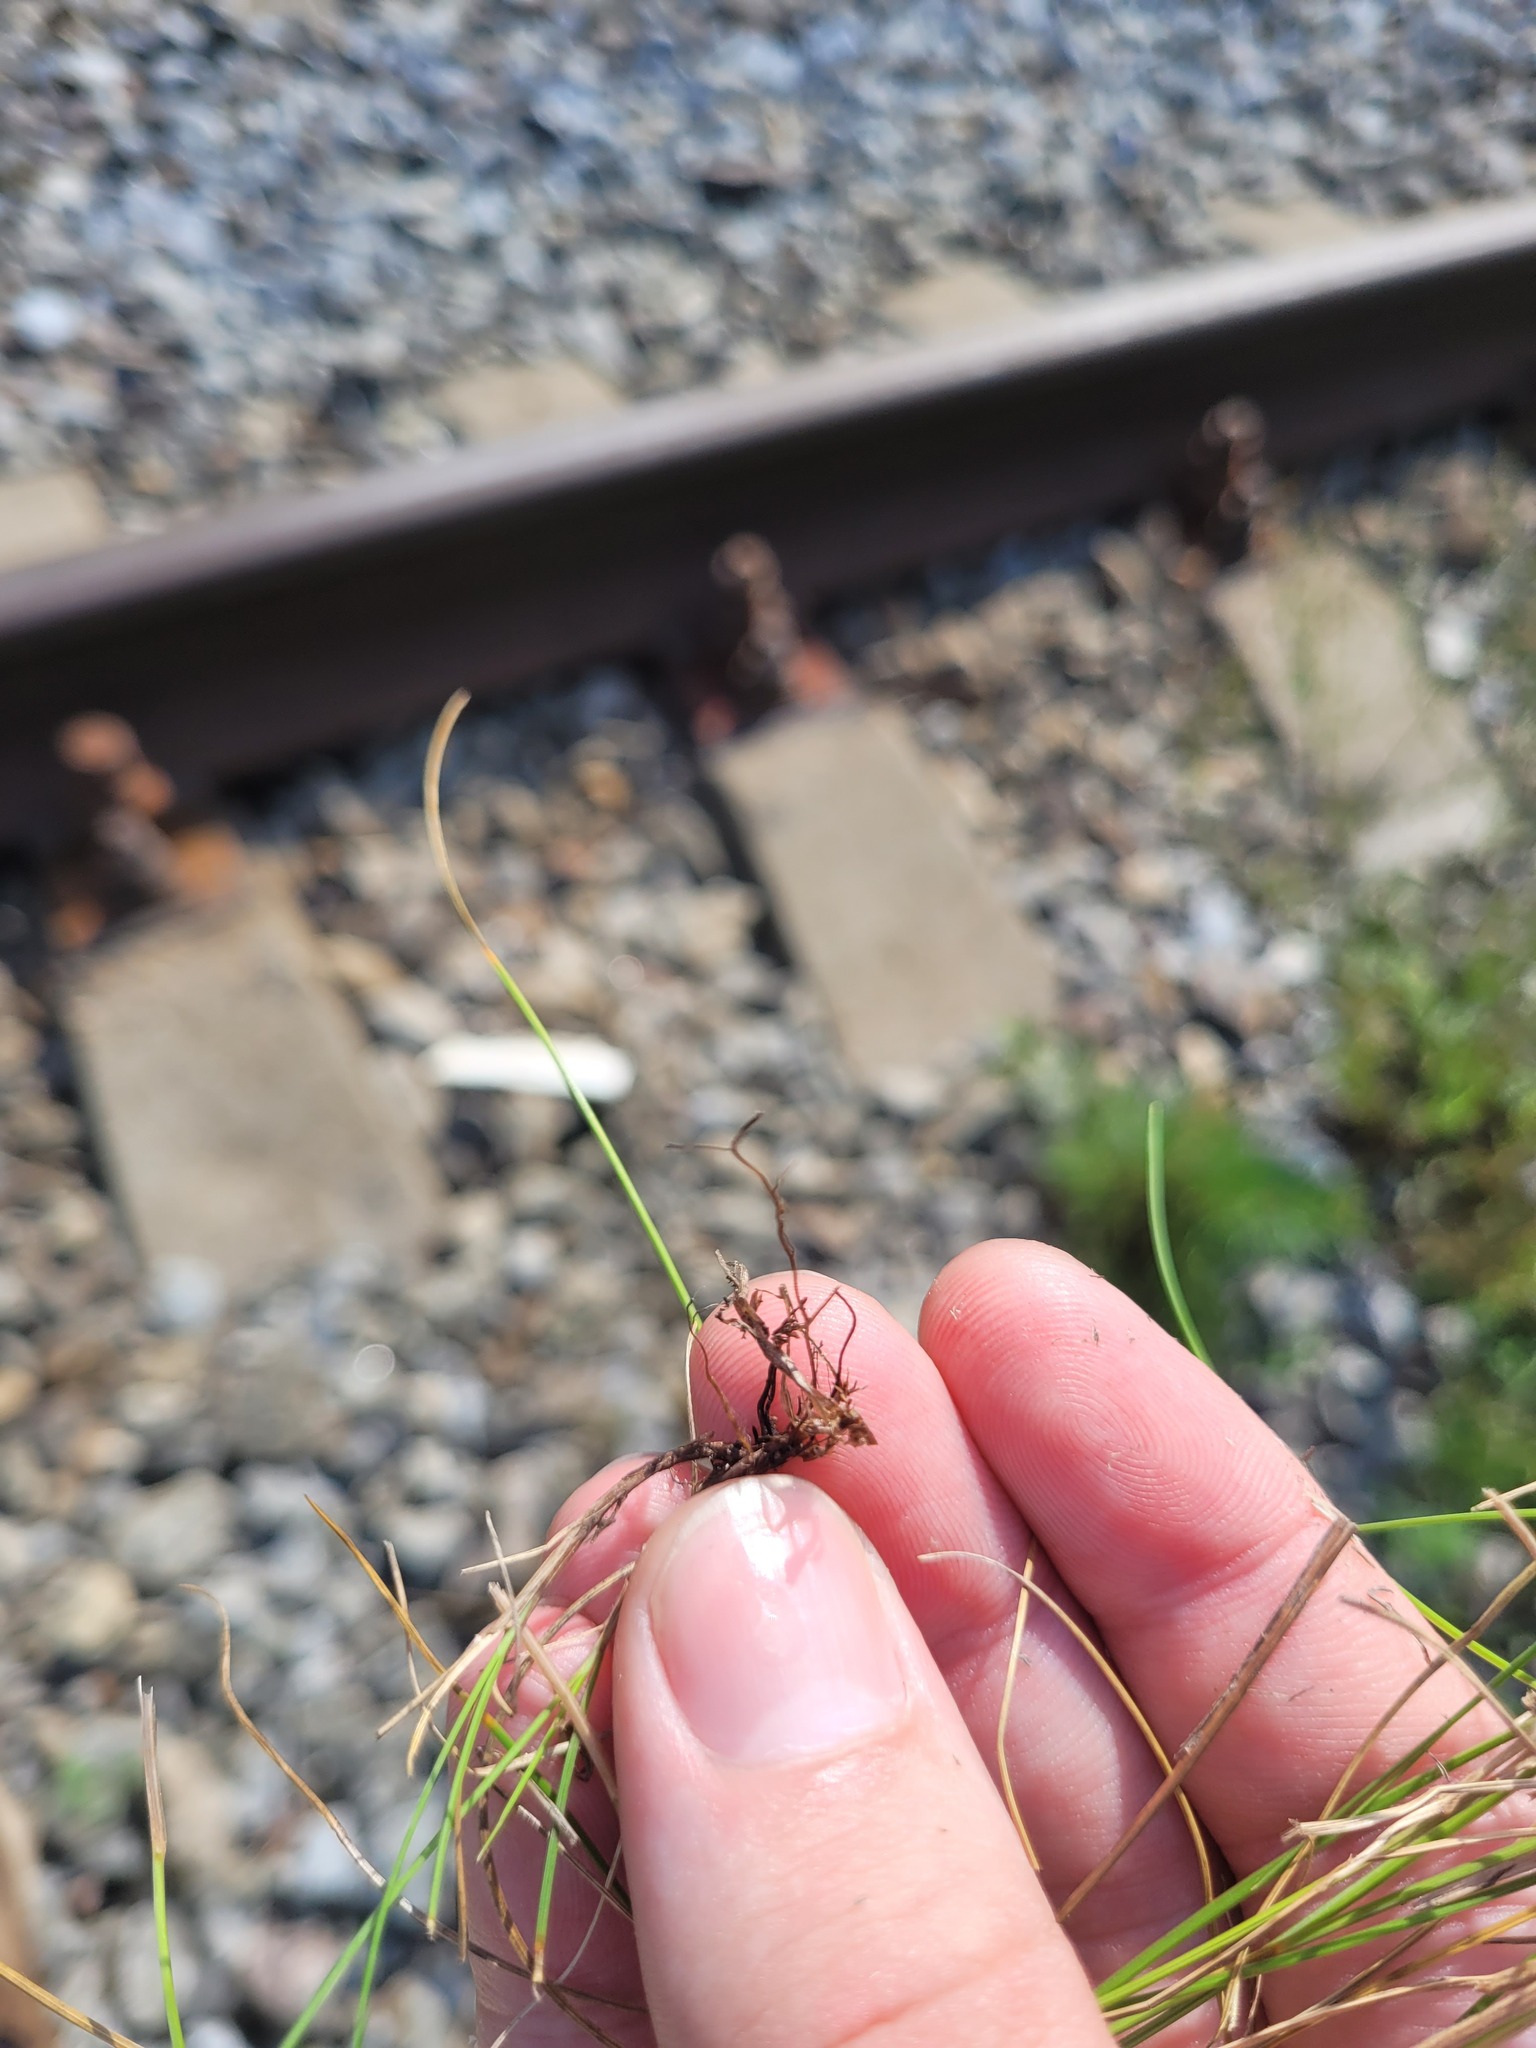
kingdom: Plantae
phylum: Tracheophyta
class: Liliopsida
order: Poales
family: Poaceae
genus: Festuca
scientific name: Festuca rubra
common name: Red fescue
